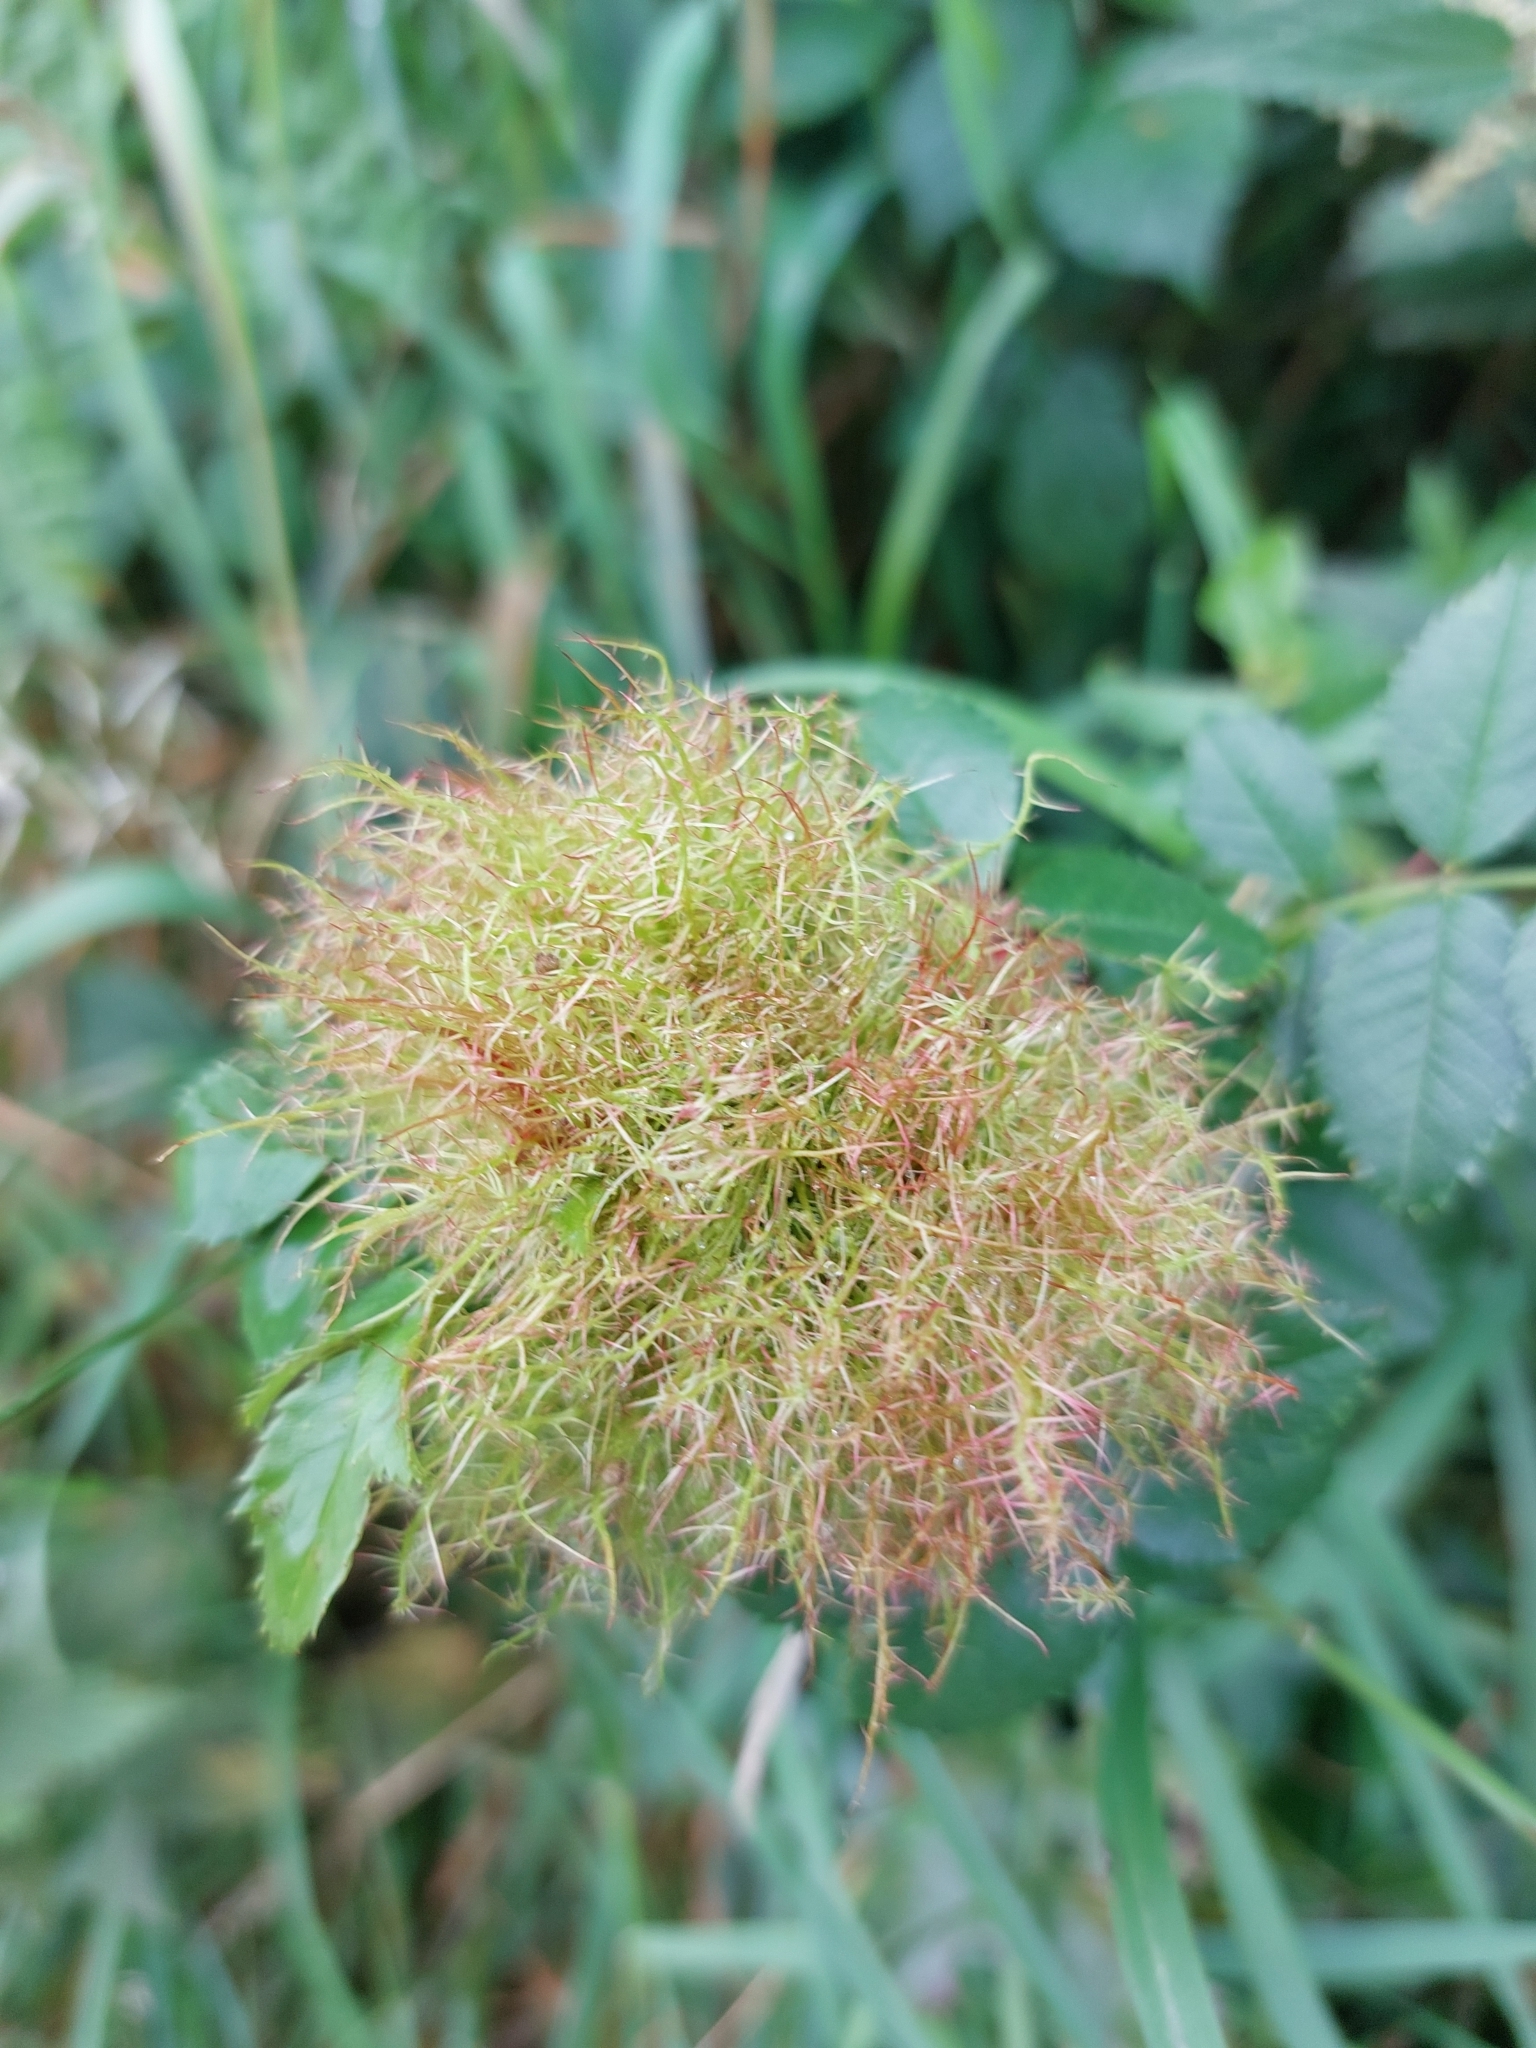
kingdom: Animalia
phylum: Arthropoda
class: Insecta
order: Hymenoptera
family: Cynipidae
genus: Diplolepis
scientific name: Diplolepis rosae
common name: Bedeguar gall
